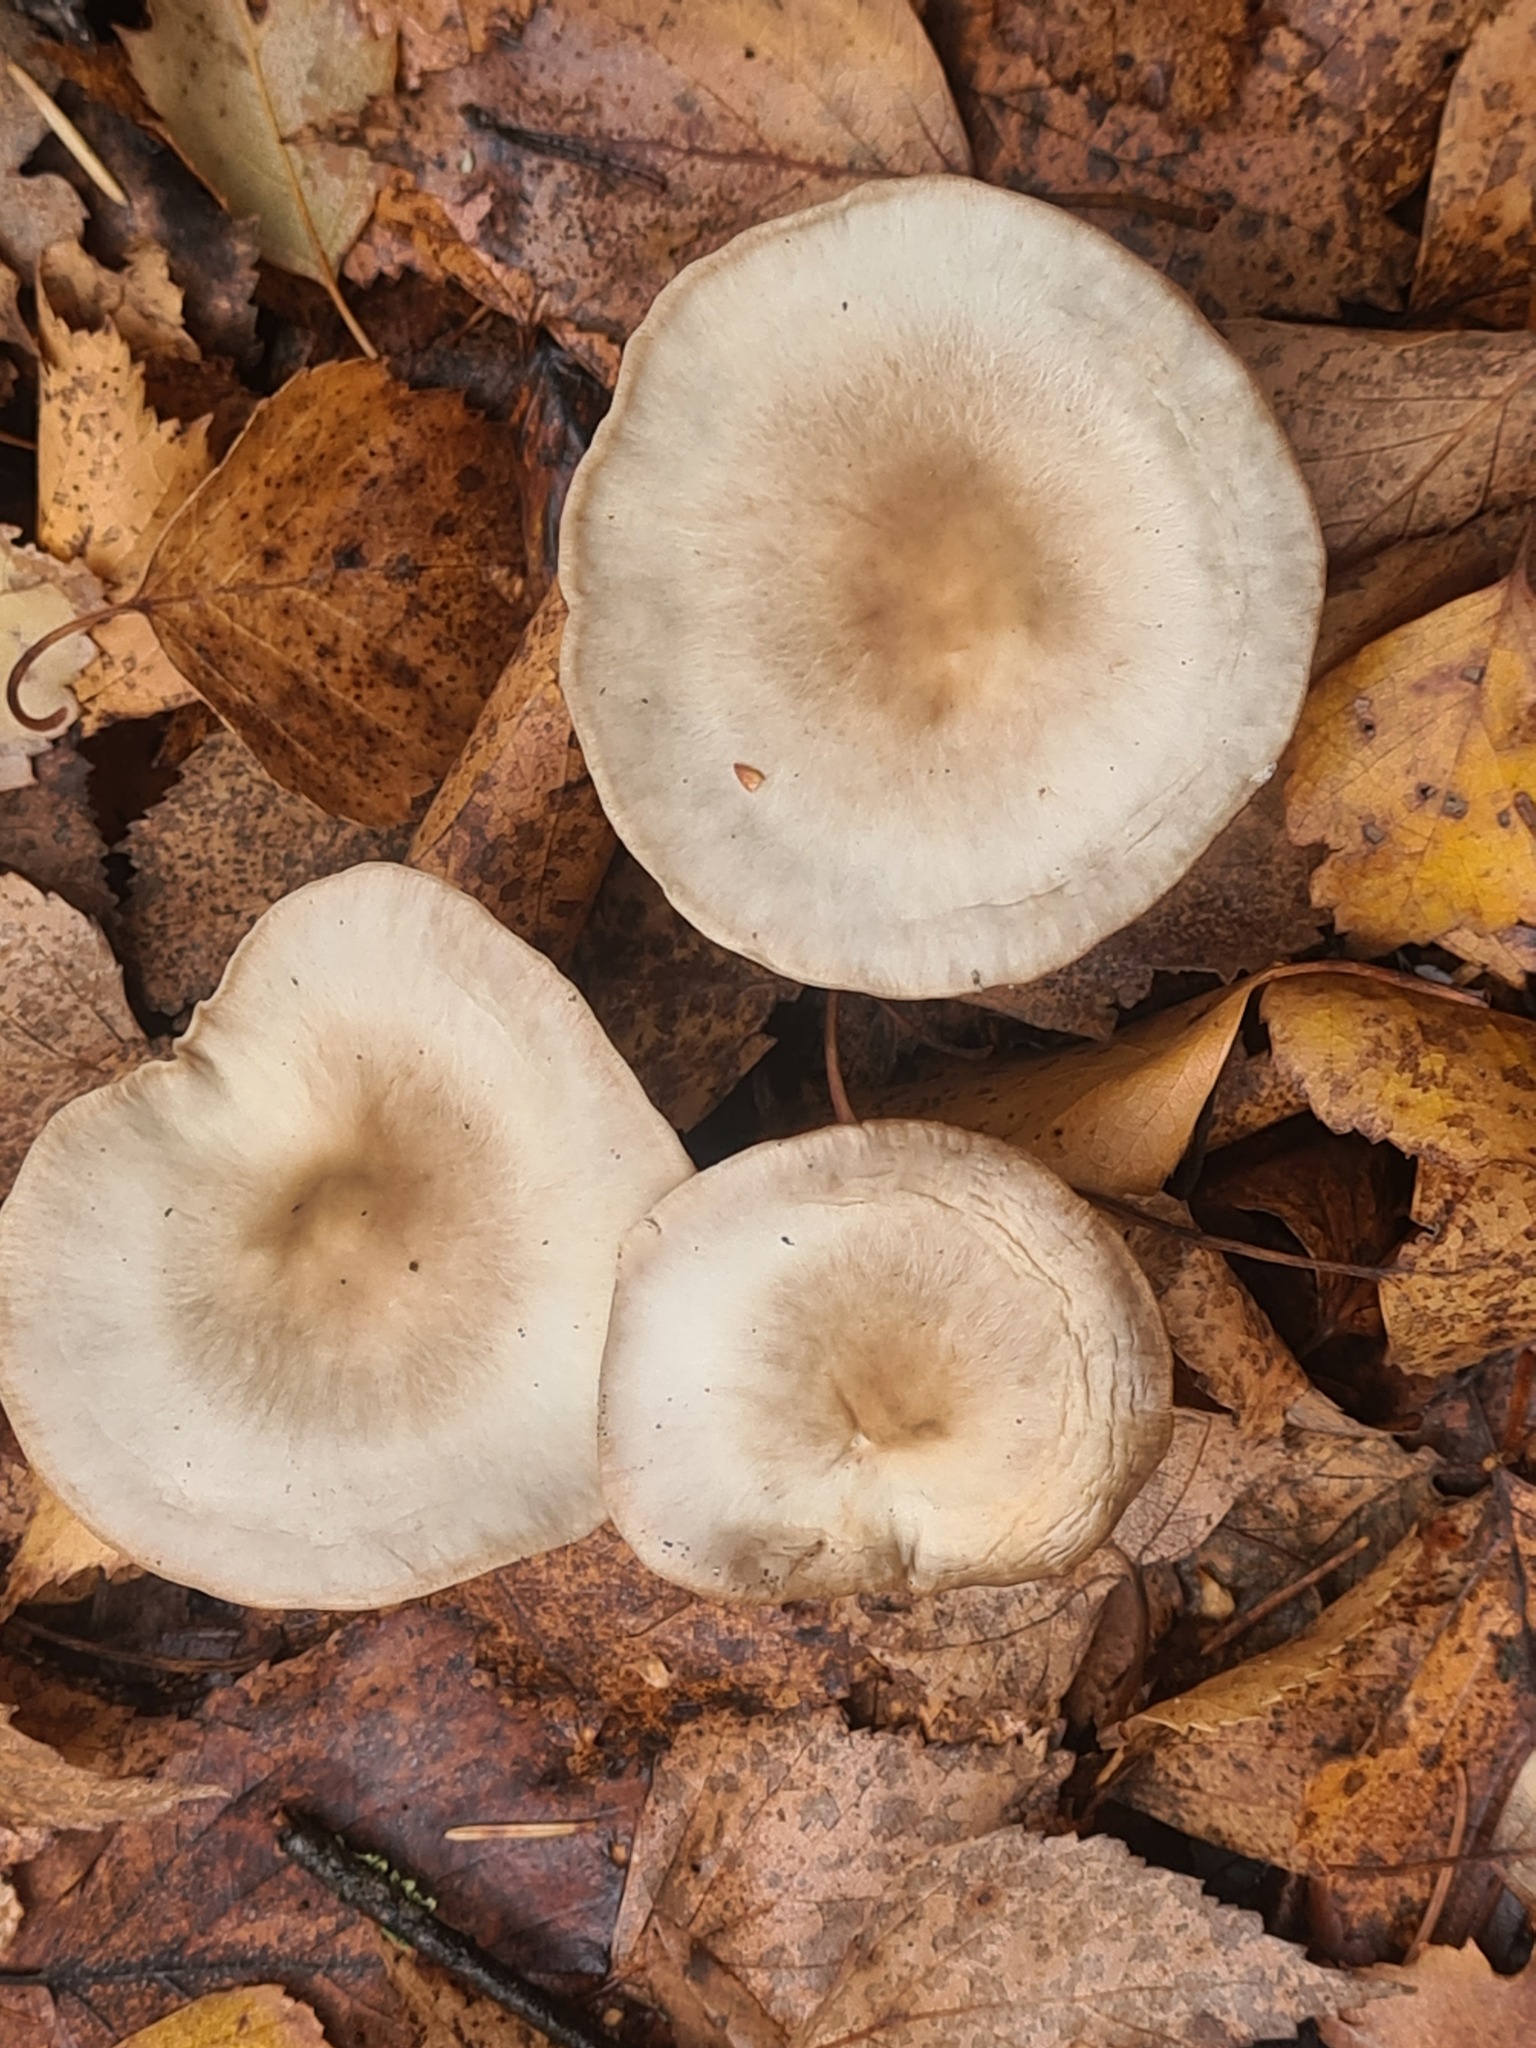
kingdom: Fungi
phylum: Basidiomycota
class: Agaricomycetes
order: Agaricales
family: Omphalotaceae
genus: Rhodocollybia
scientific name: Rhodocollybia butyracea
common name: Butter cap
